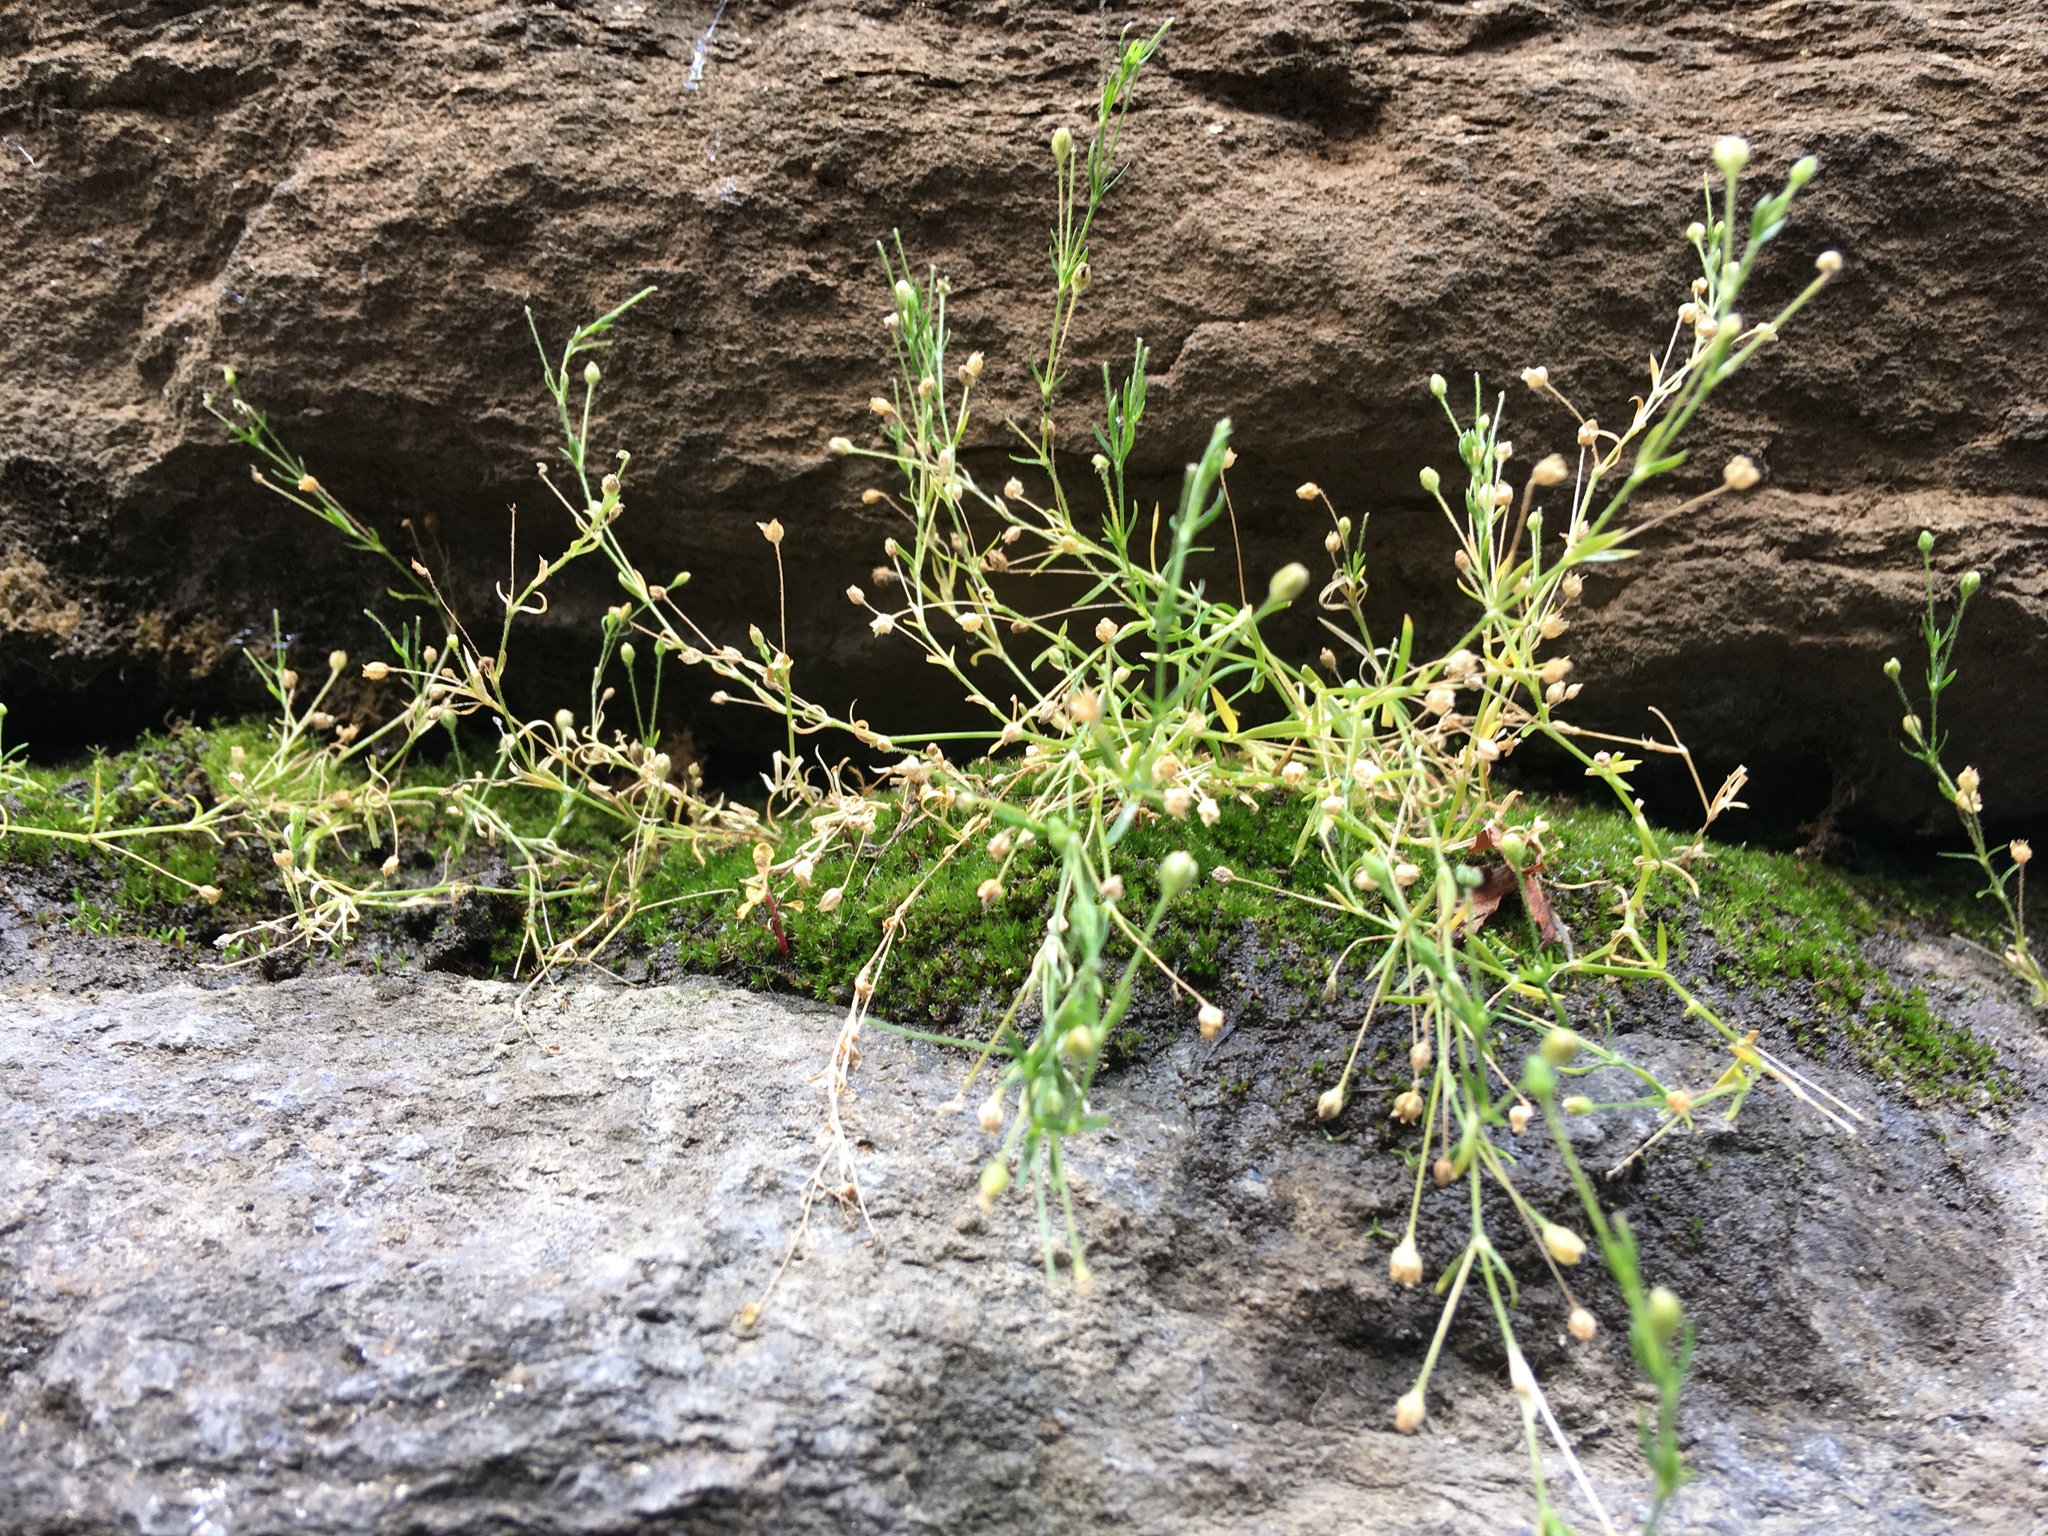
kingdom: Plantae
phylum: Tracheophyta
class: Magnoliopsida
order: Caryophyllales
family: Caryophyllaceae
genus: Sagina
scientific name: Sagina japonica
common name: Japanese pearlwort
